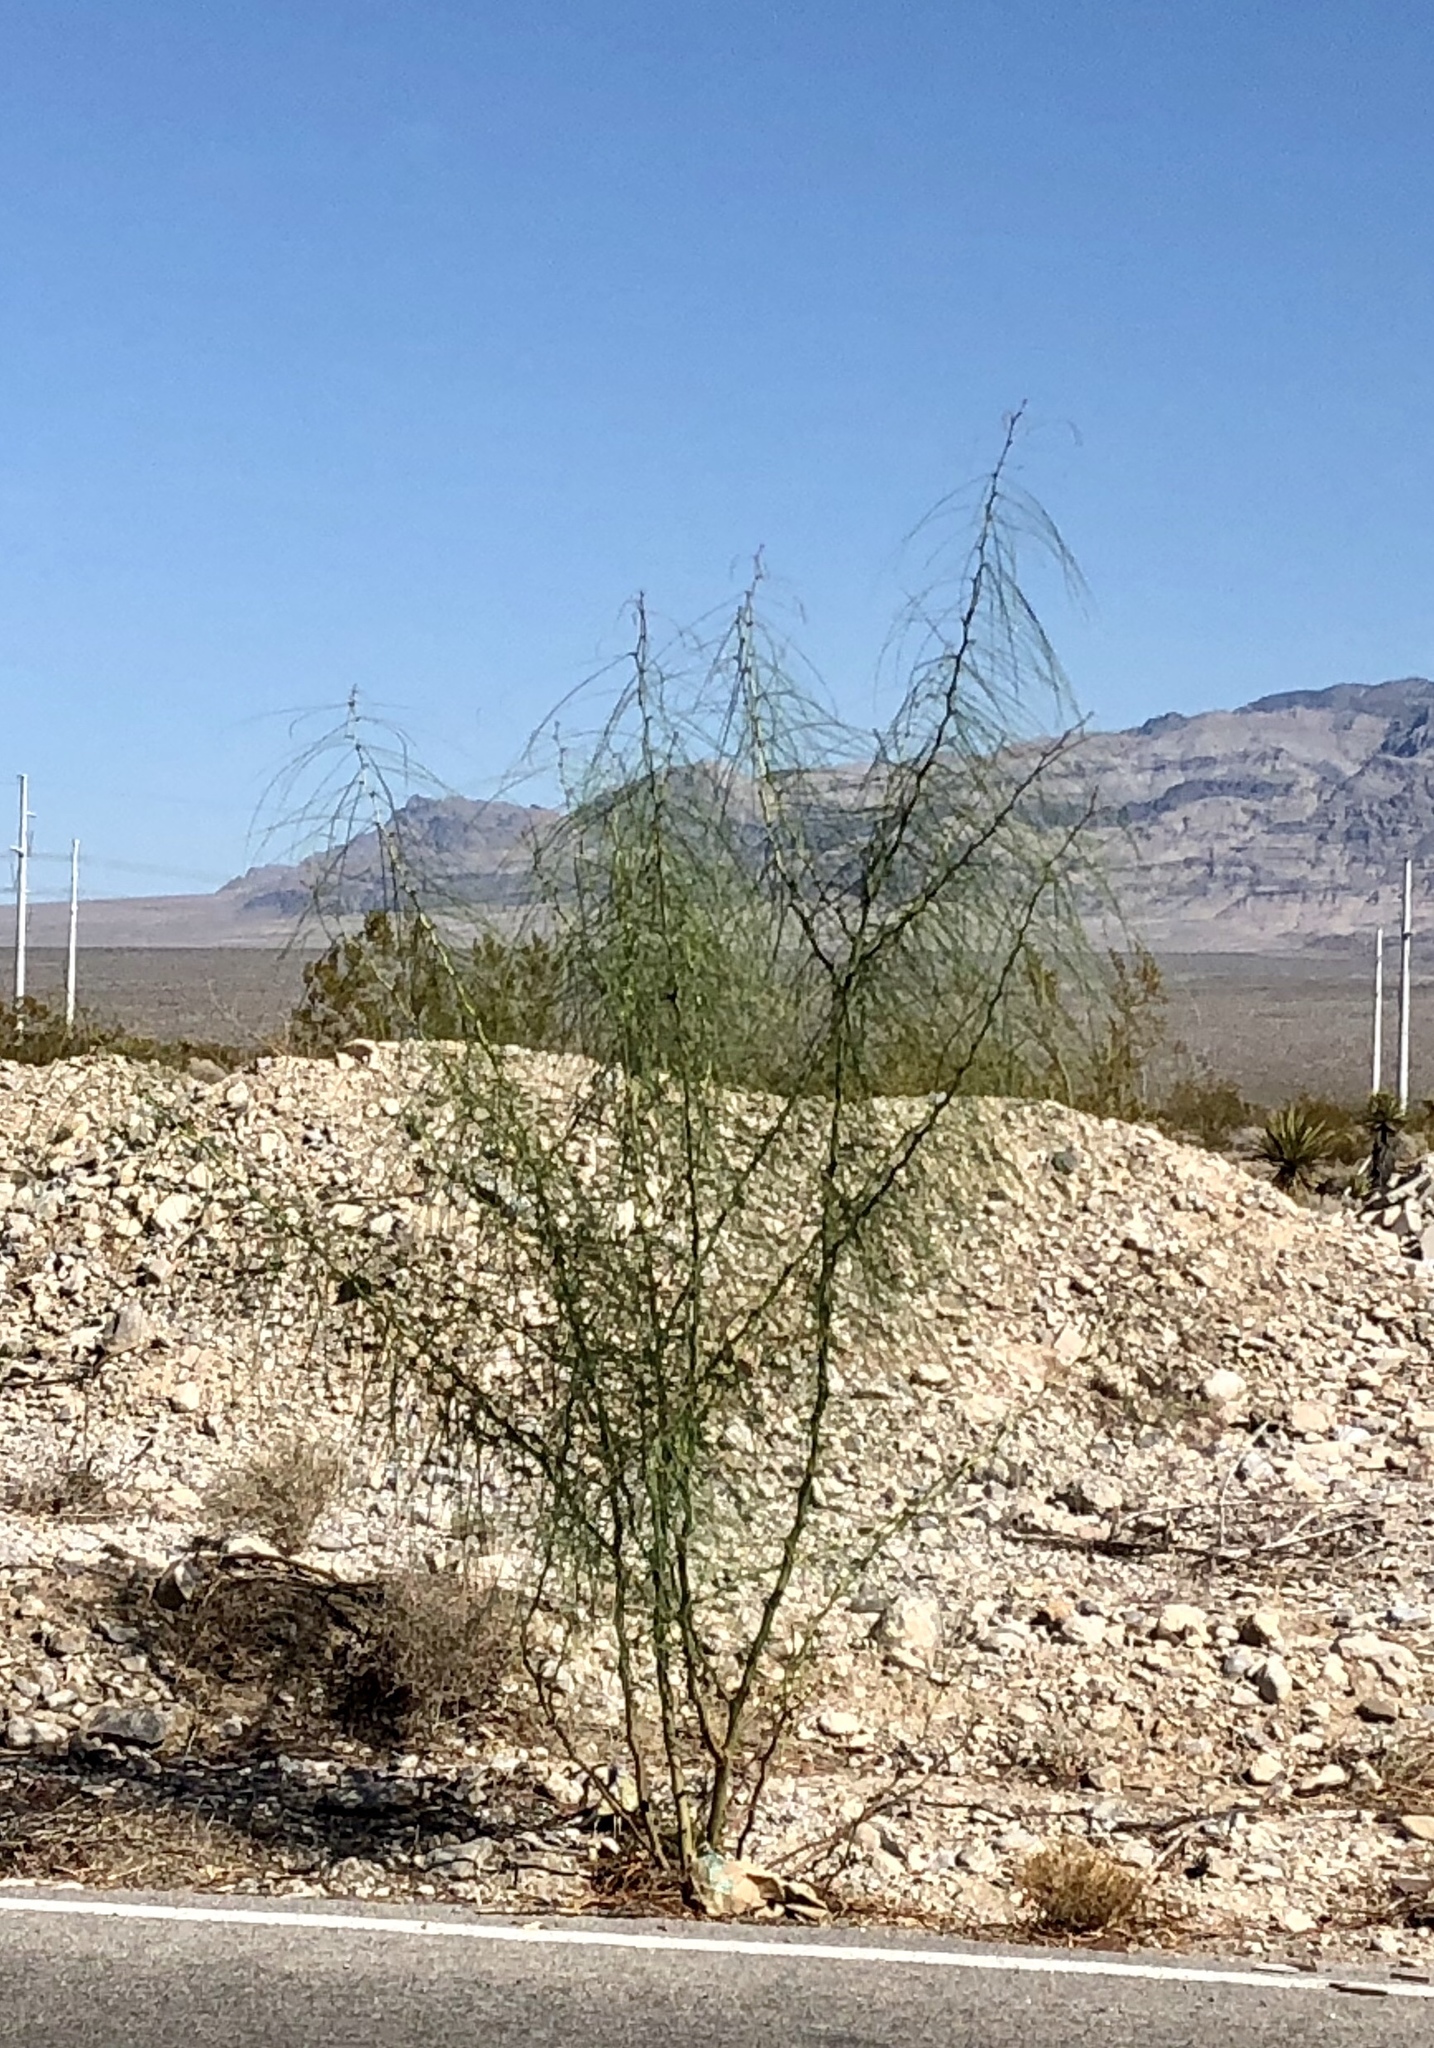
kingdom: Plantae
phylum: Tracheophyta
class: Magnoliopsida
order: Fabales
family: Fabaceae
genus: Parkinsonia
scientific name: Parkinsonia aculeata
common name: Jerusalem thorn
